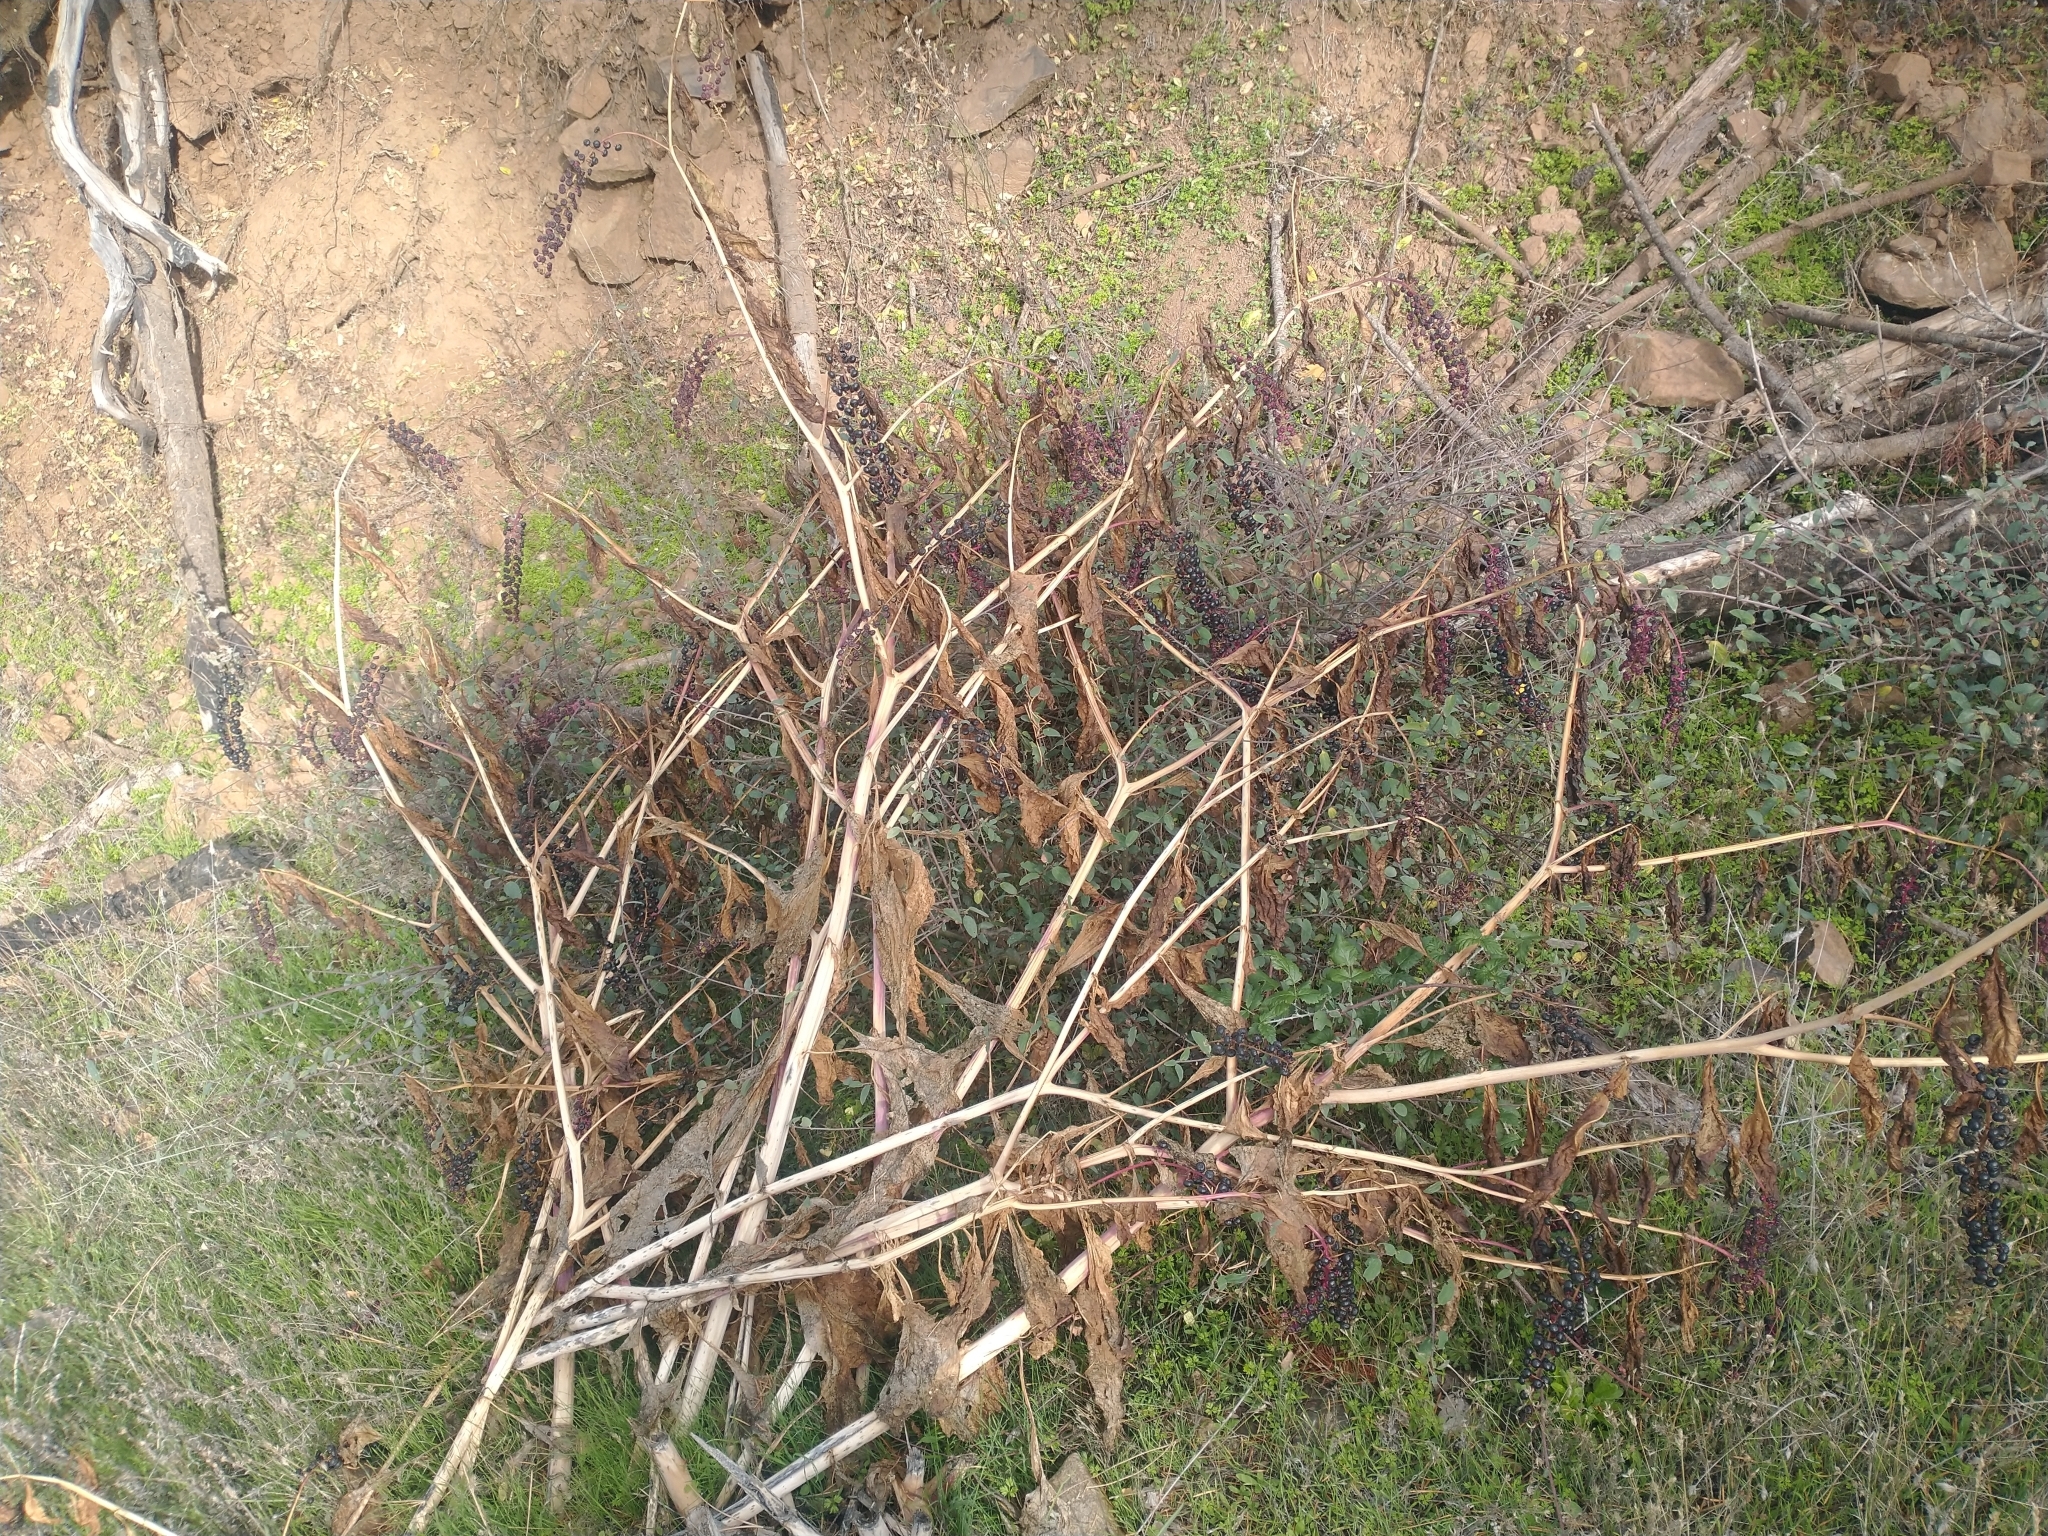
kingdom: Plantae
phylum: Tracheophyta
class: Magnoliopsida
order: Caryophyllales
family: Phytolaccaceae
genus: Phytolacca
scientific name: Phytolacca americana
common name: American pokeweed
